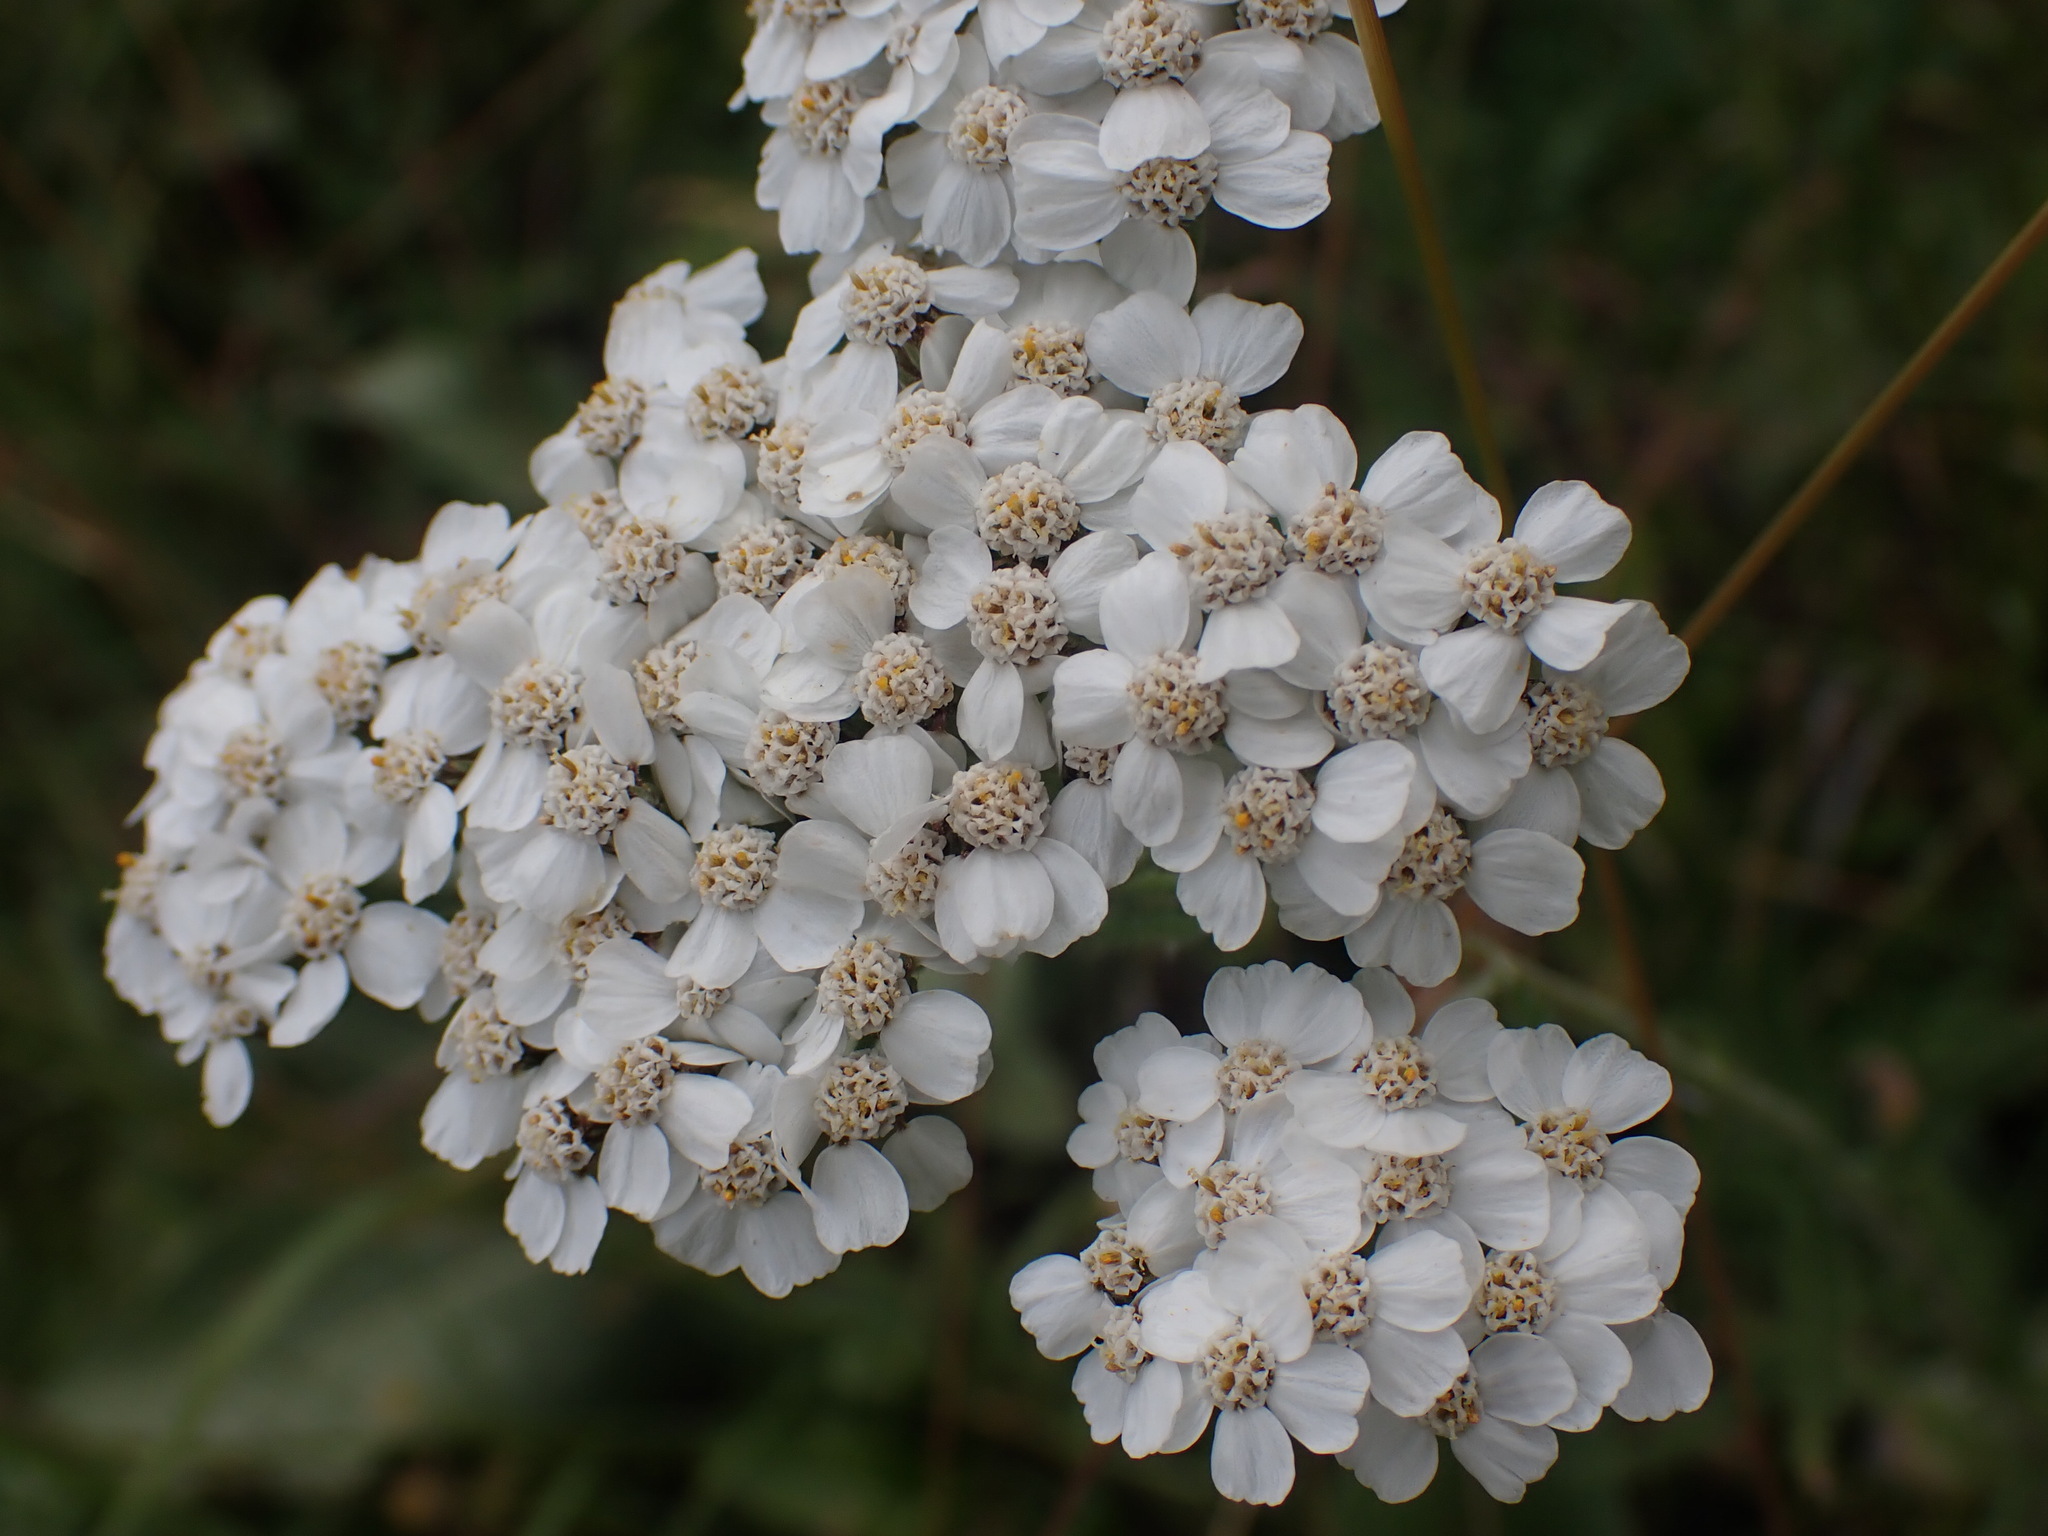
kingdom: Plantae
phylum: Tracheophyta
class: Magnoliopsida
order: Asterales
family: Asteraceae
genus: Achillea
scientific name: Achillea millefolium
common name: Yarrow
